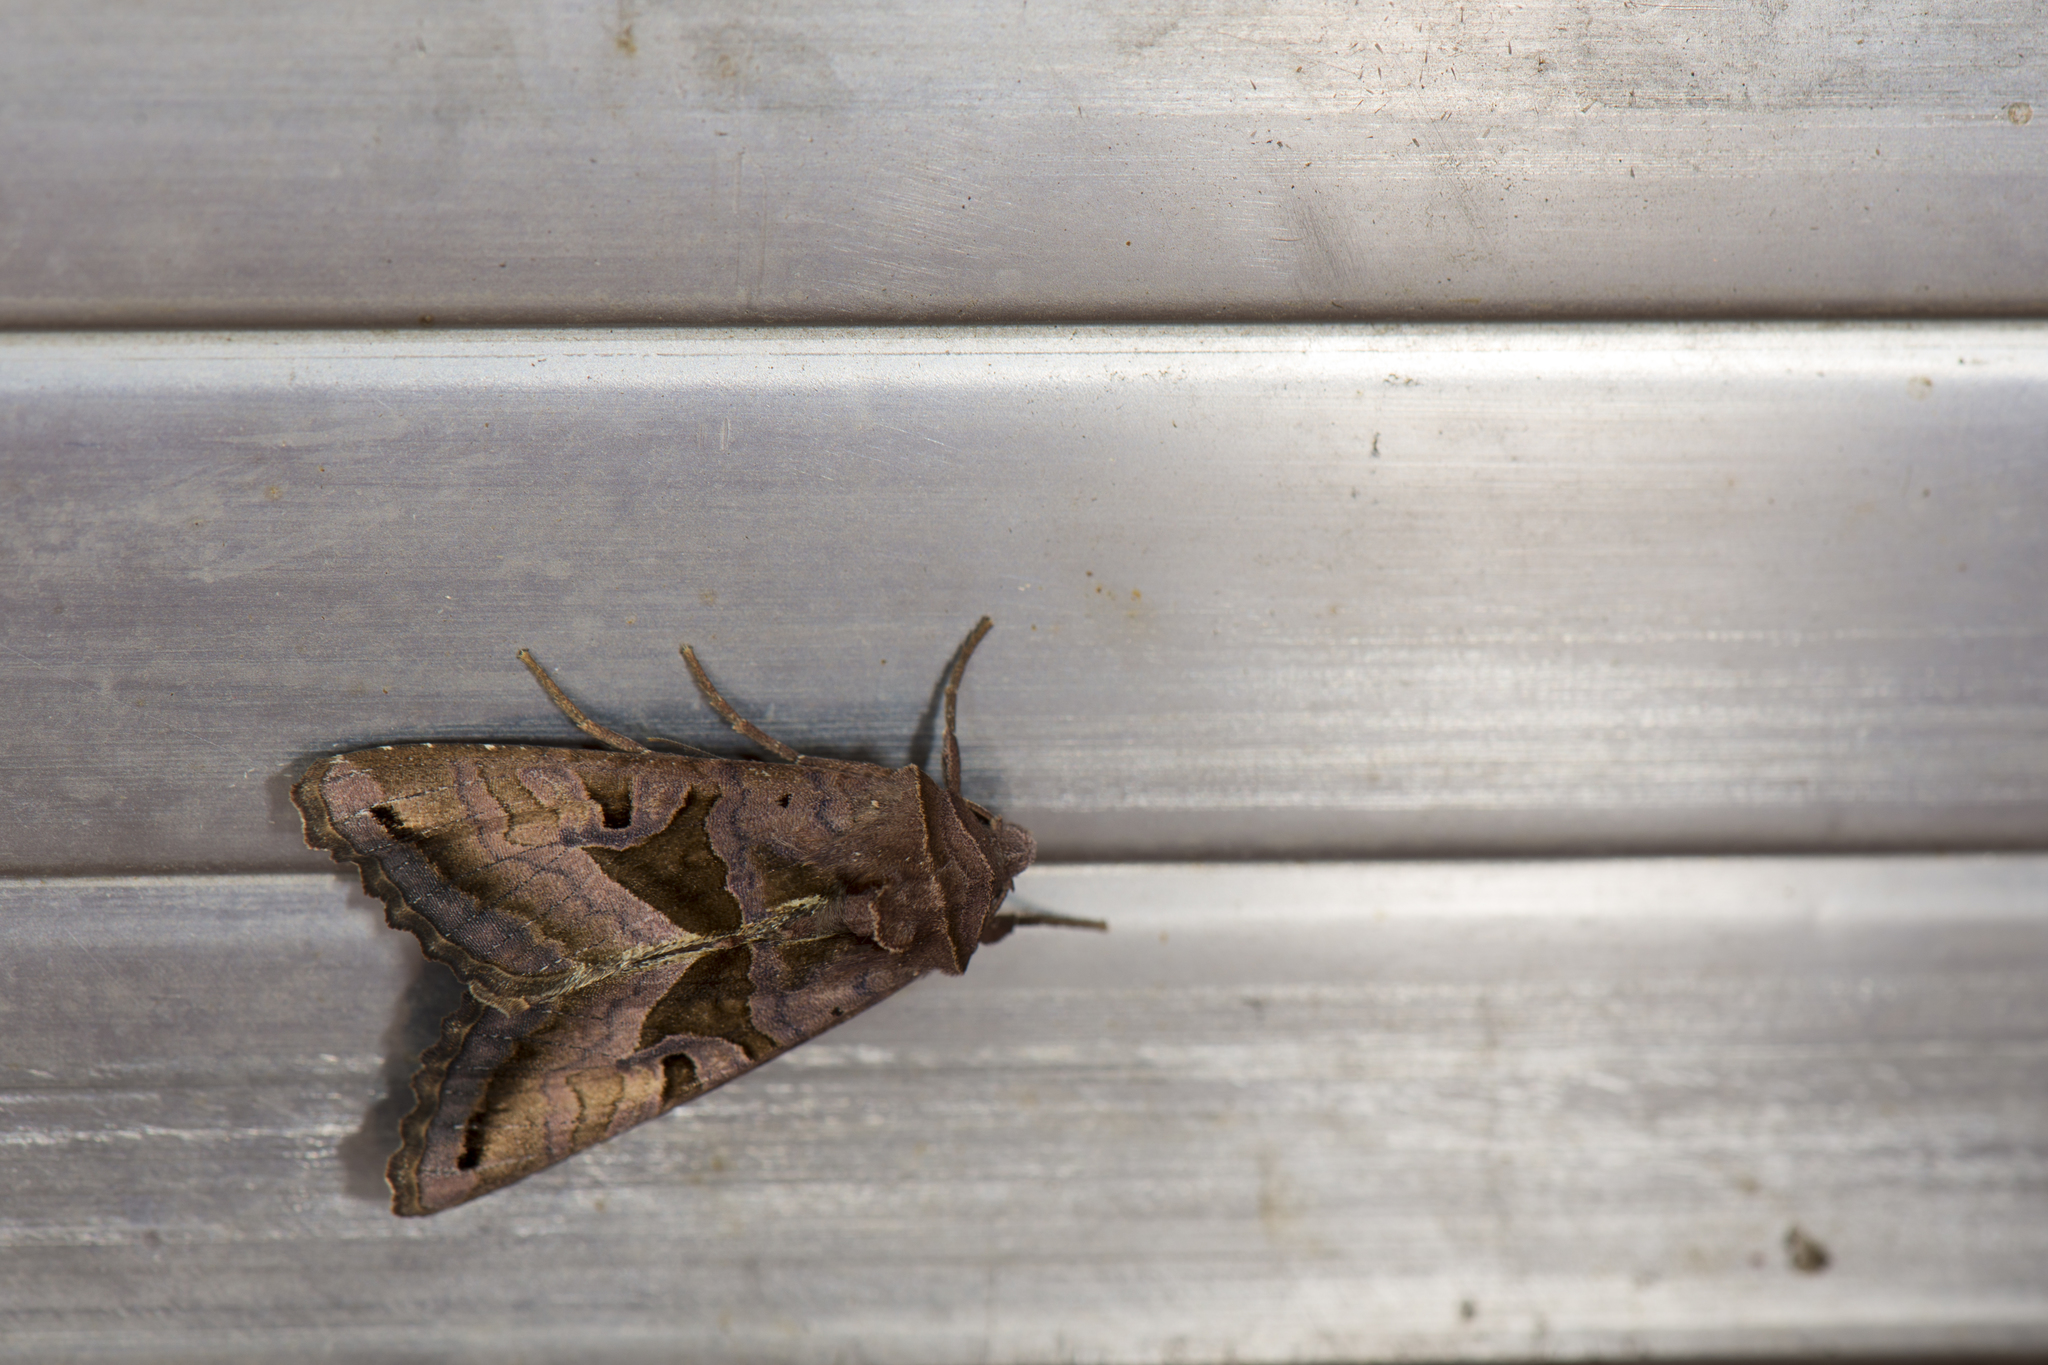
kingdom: Animalia
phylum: Arthropoda
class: Insecta
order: Lepidoptera
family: Noctuidae
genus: Phlogophora
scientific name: Phlogophora insularis
